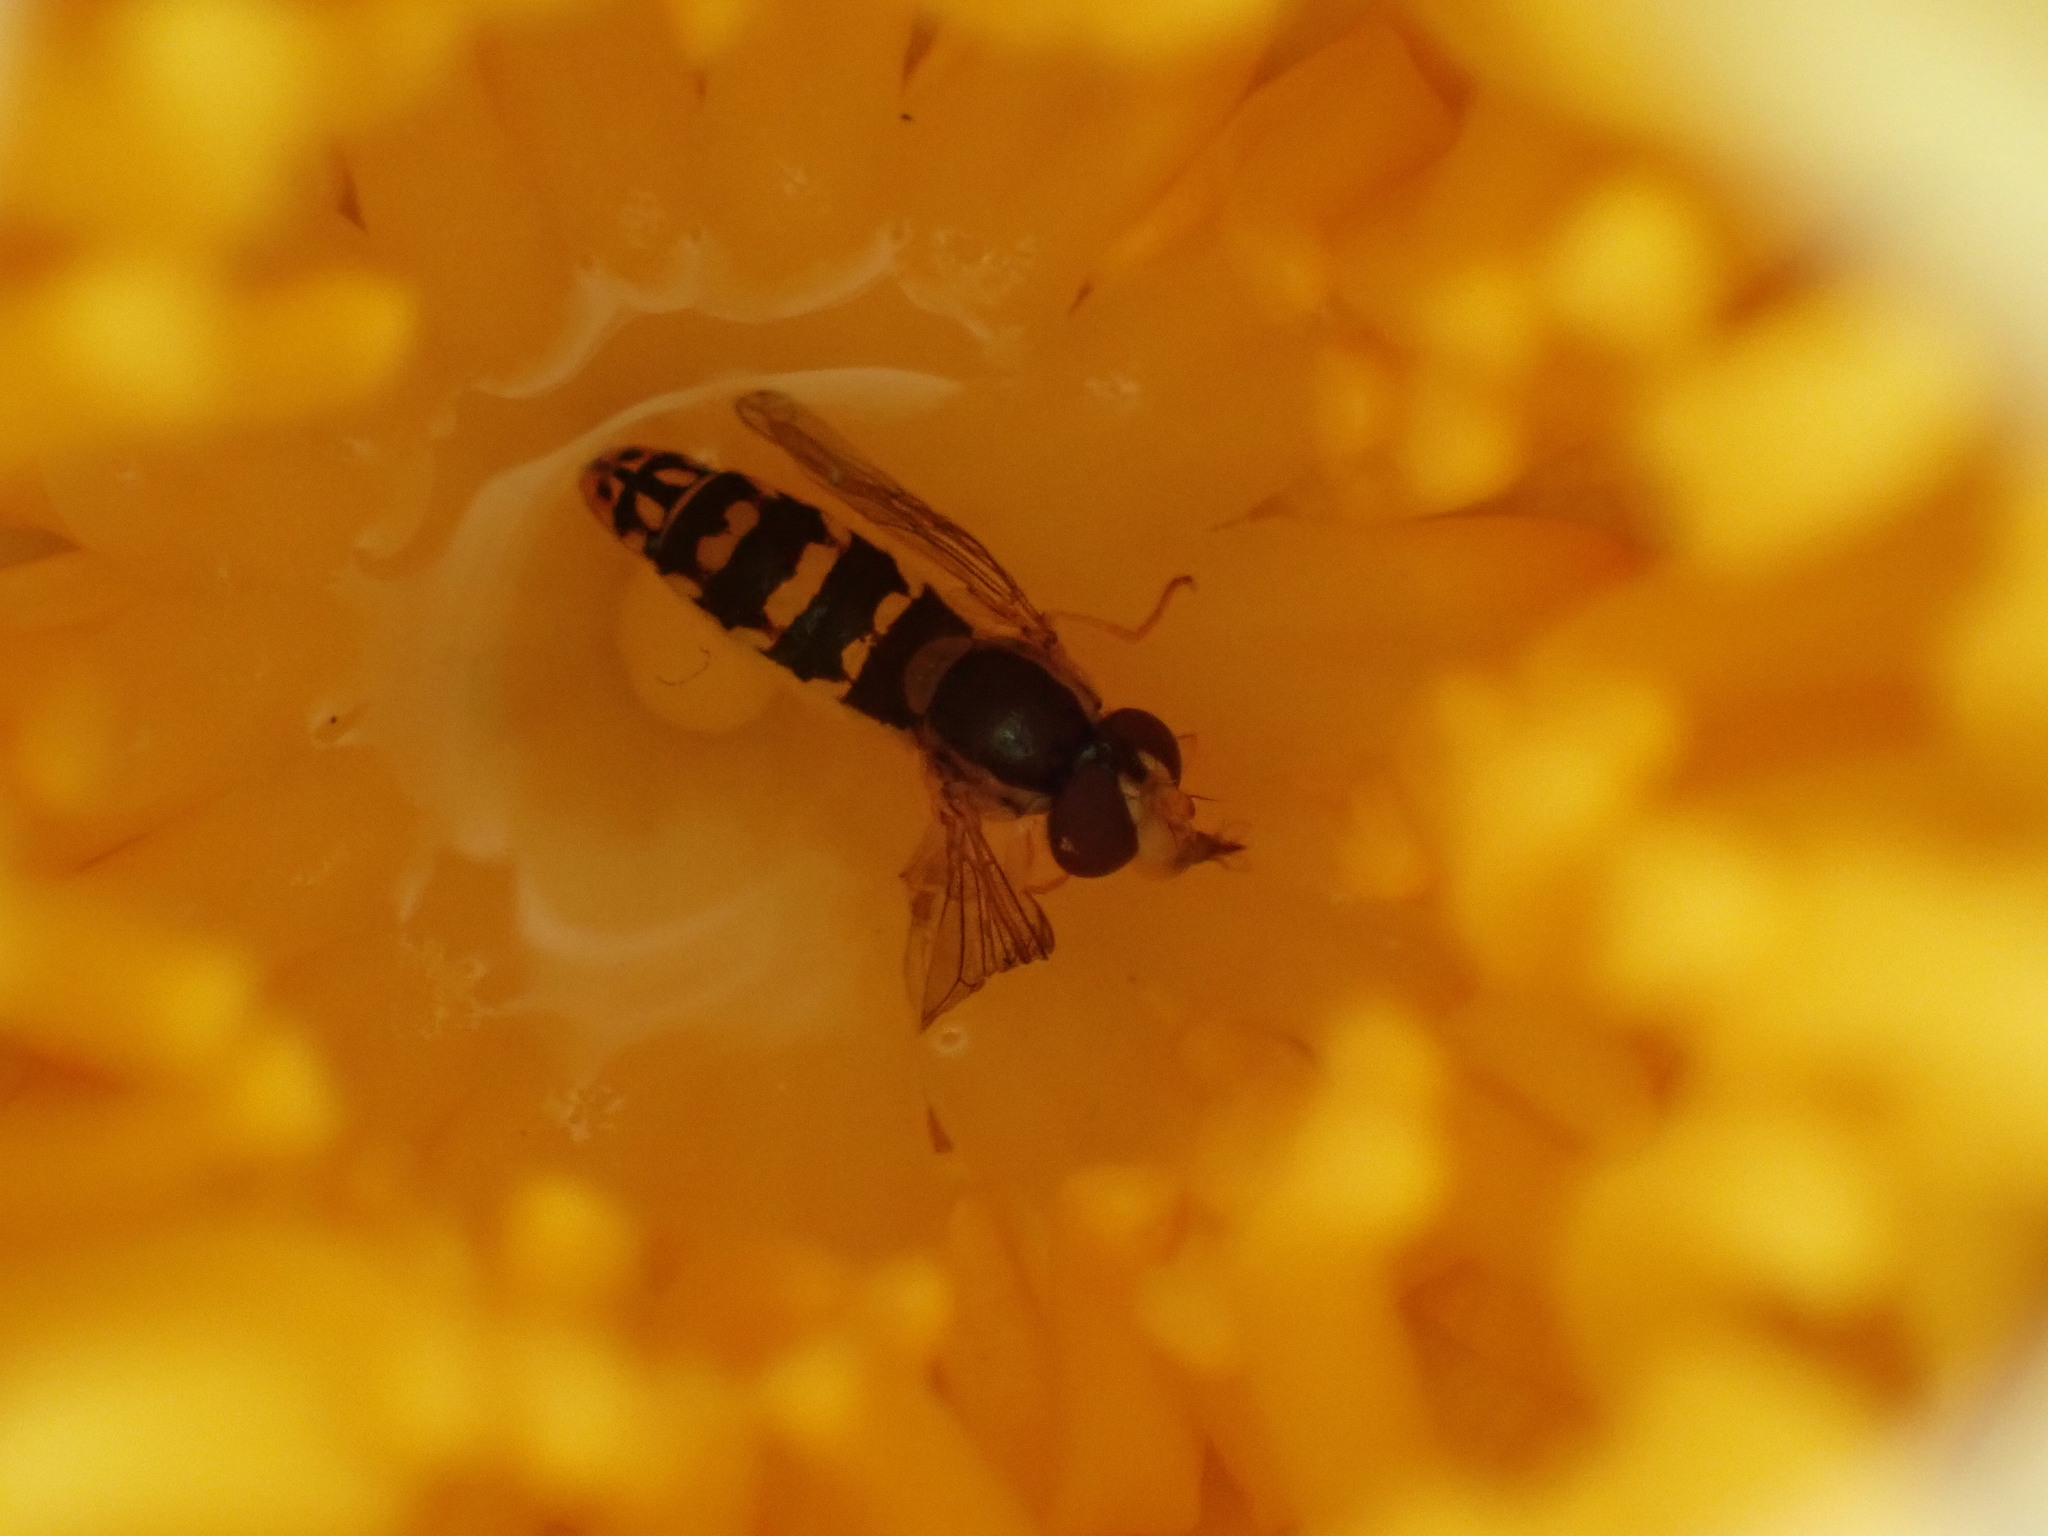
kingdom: Animalia
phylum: Arthropoda
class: Insecta
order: Diptera
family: Syrphidae
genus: Sphaerophoria
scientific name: Sphaerophoria
